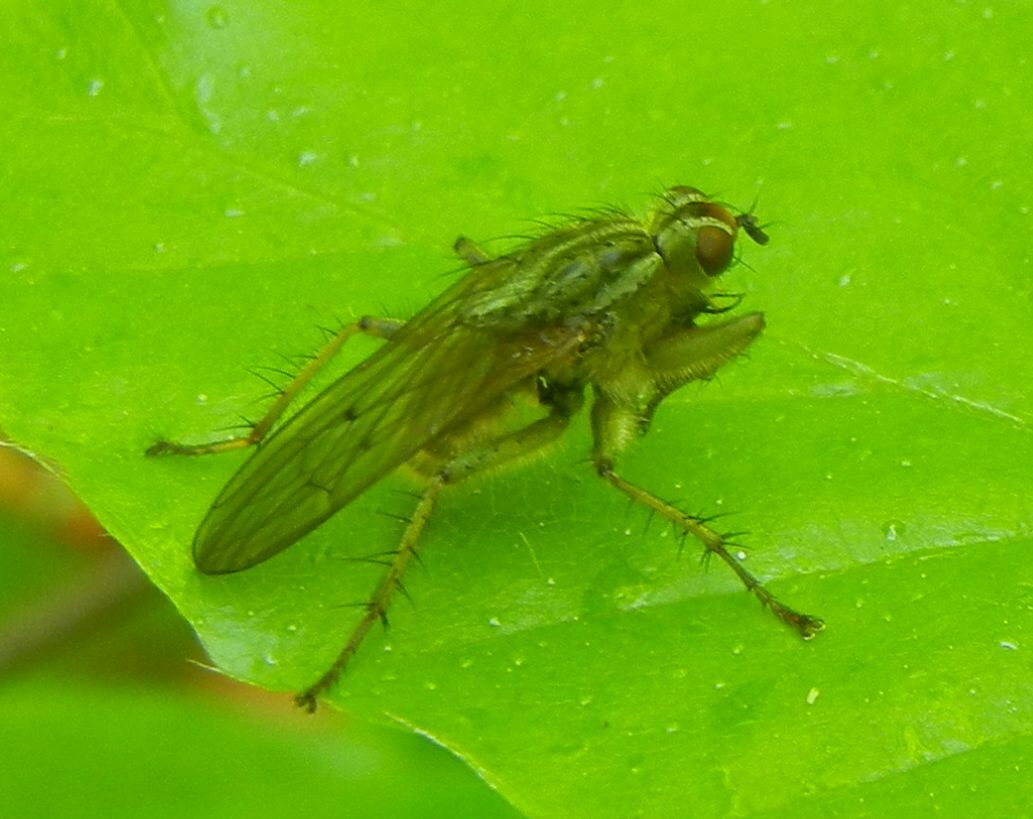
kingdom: Animalia
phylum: Arthropoda
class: Insecta
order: Diptera
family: Scathophagidae
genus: Scathophaga
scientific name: Scathophaga stercoraria
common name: Yellow dung fly
